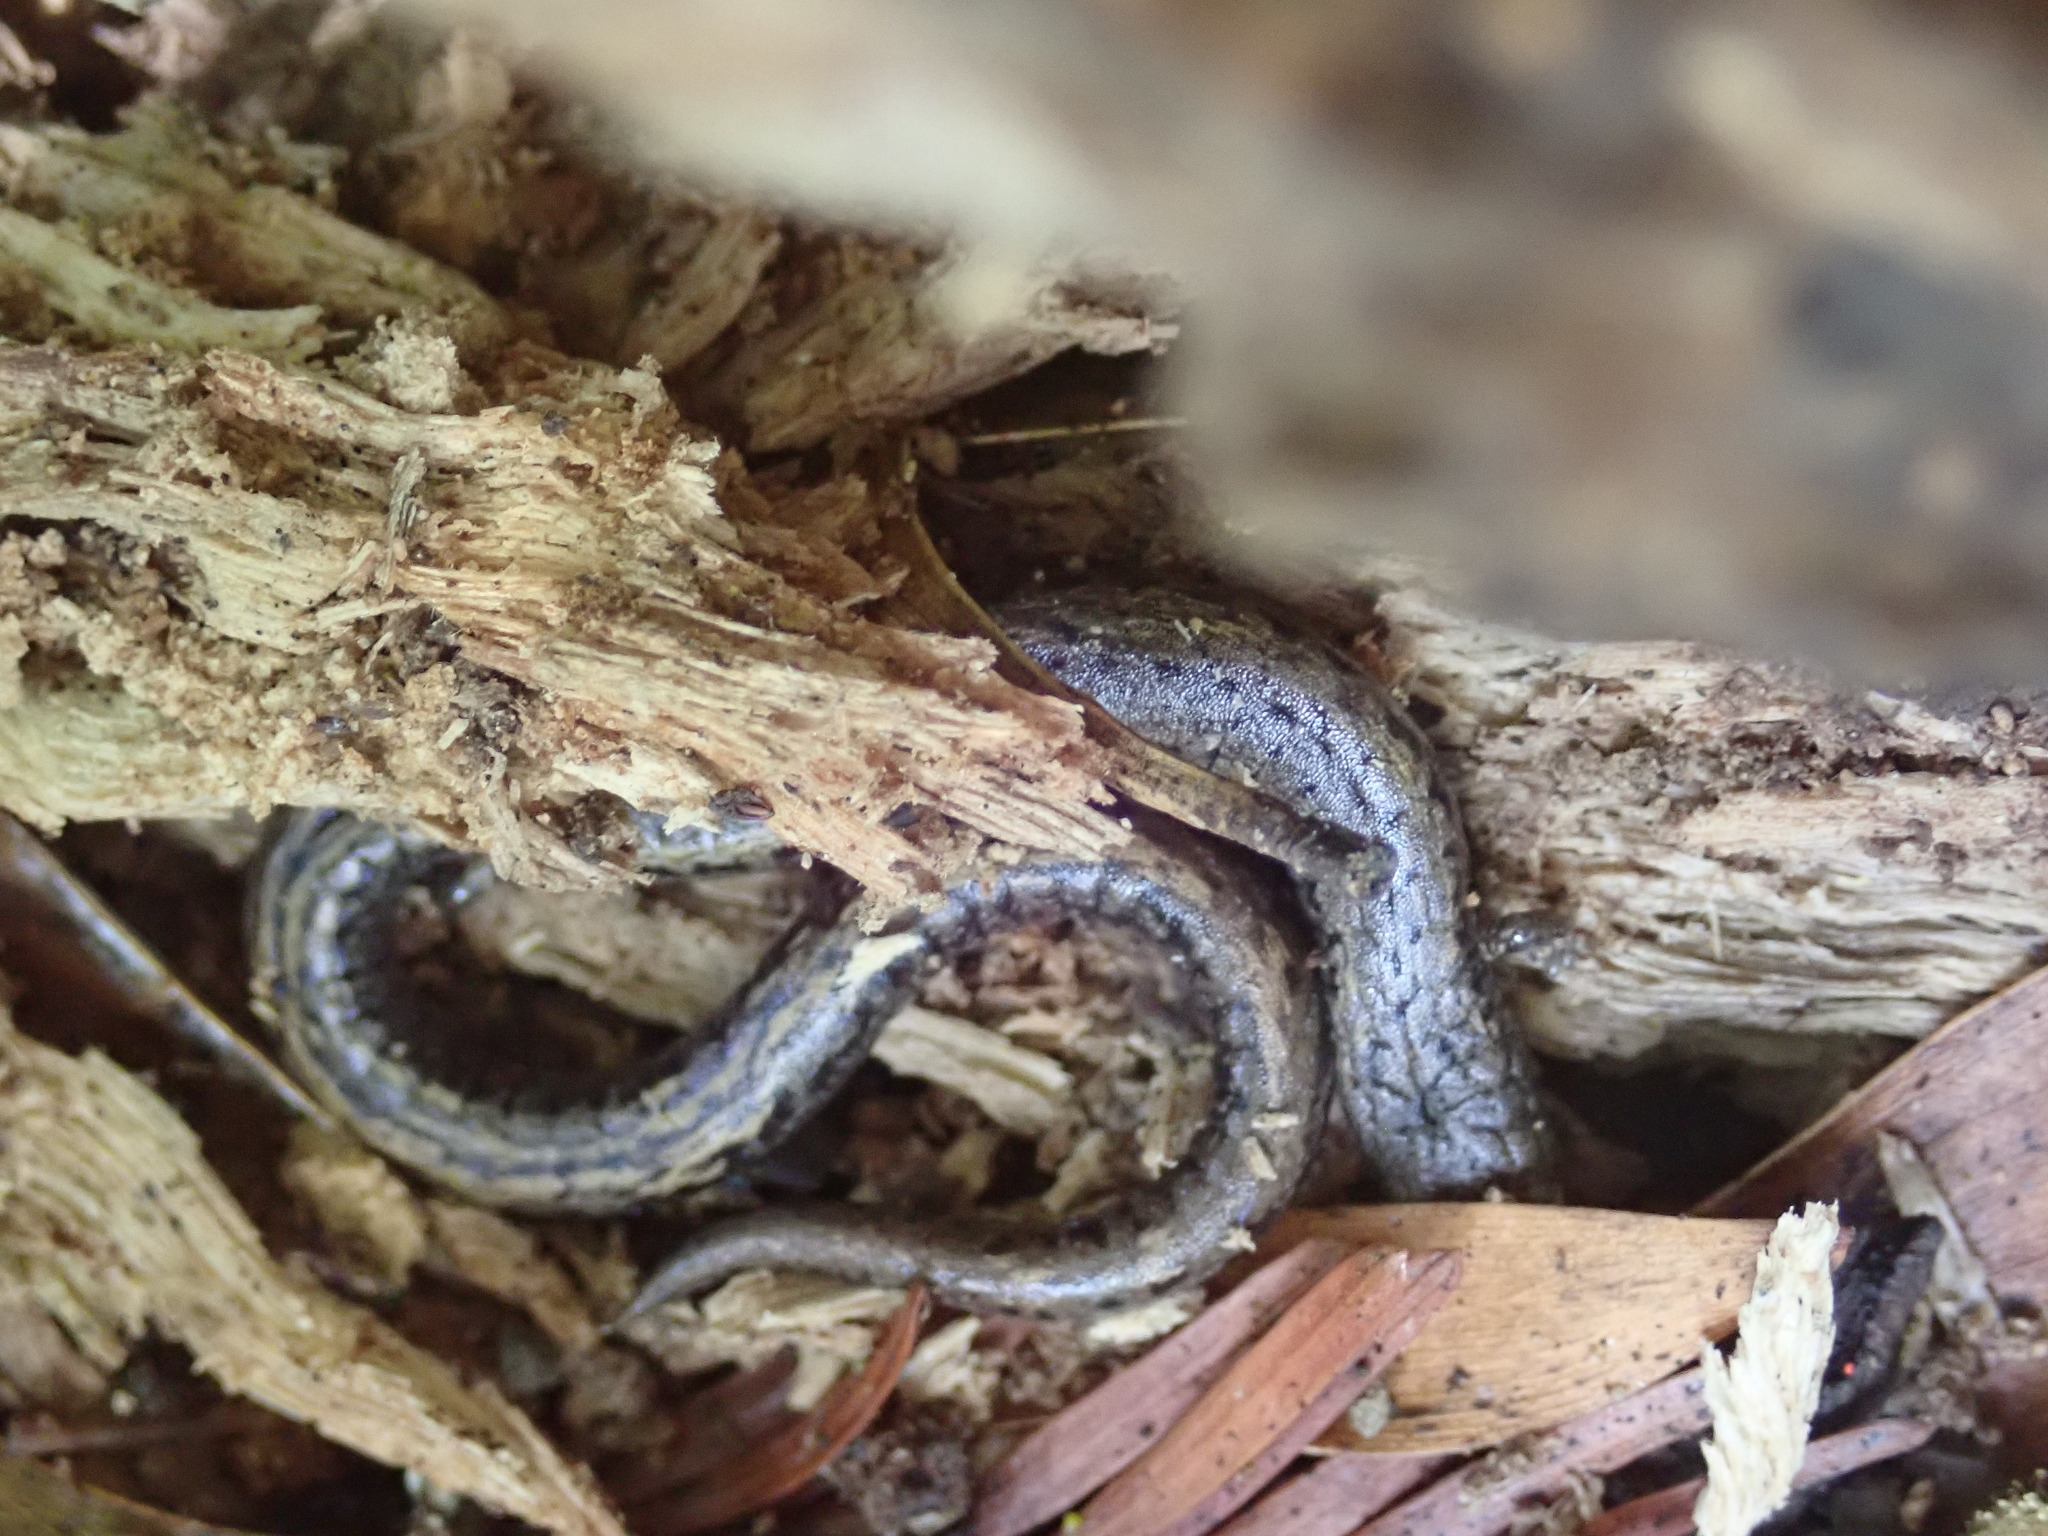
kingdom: Animalia
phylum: Chordata
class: Amphibia
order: Caudata
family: Plethodontidae
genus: Batrachoseps
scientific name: Batrachoseps attenuatus
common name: California slender salamander
